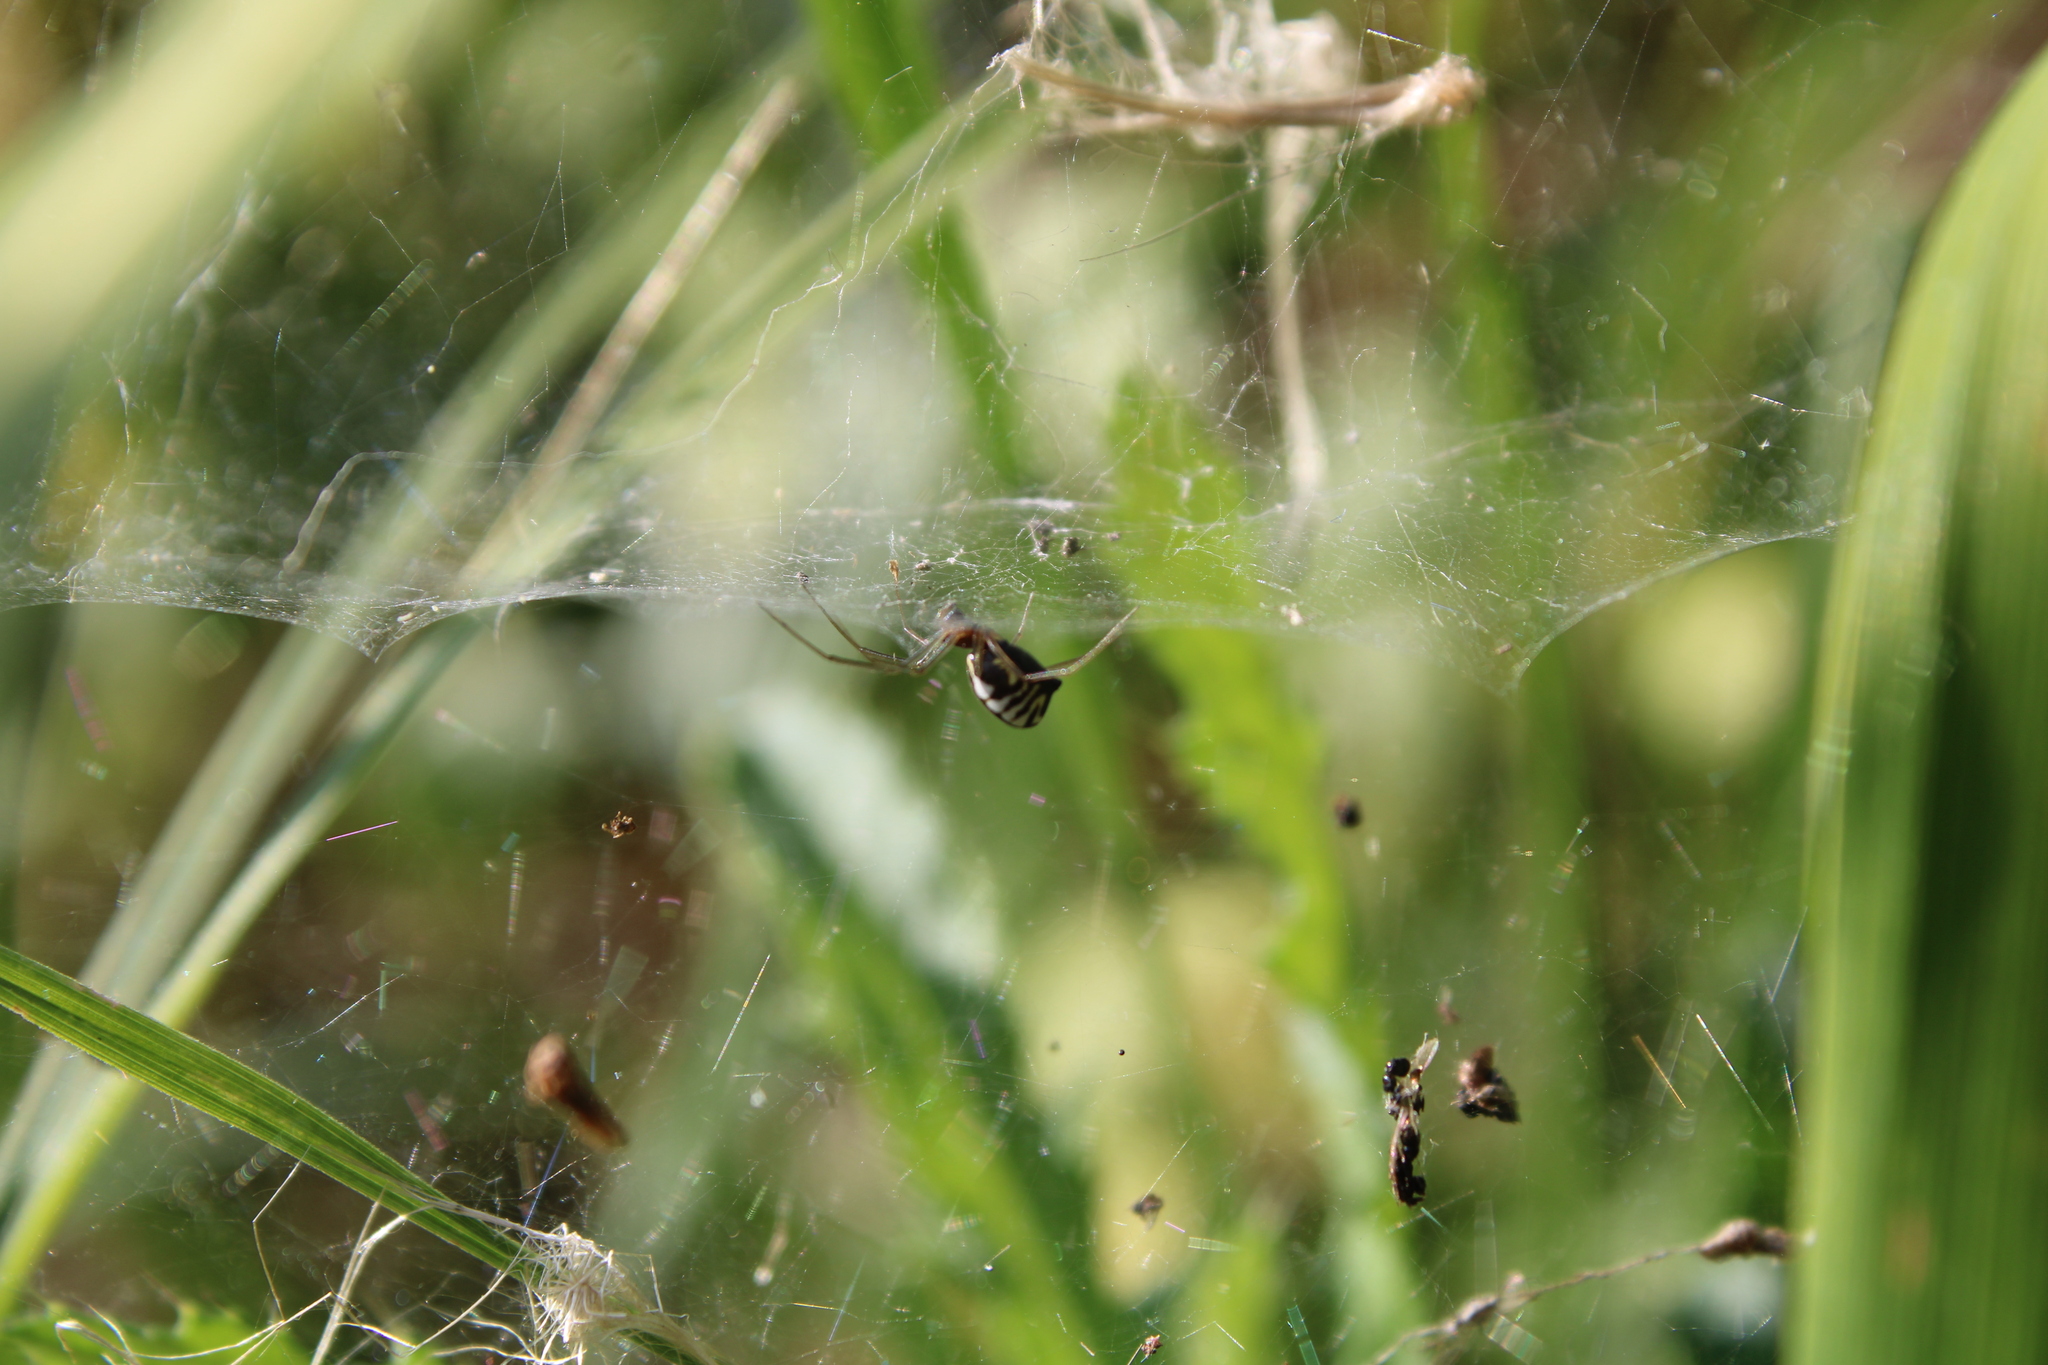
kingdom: Animalia
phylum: Arthropoda
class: Arachnida
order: Araneae
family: Linyphiidae
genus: Frontinella
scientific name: Frontinella pyramitela
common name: Bowl-and-doily spider
